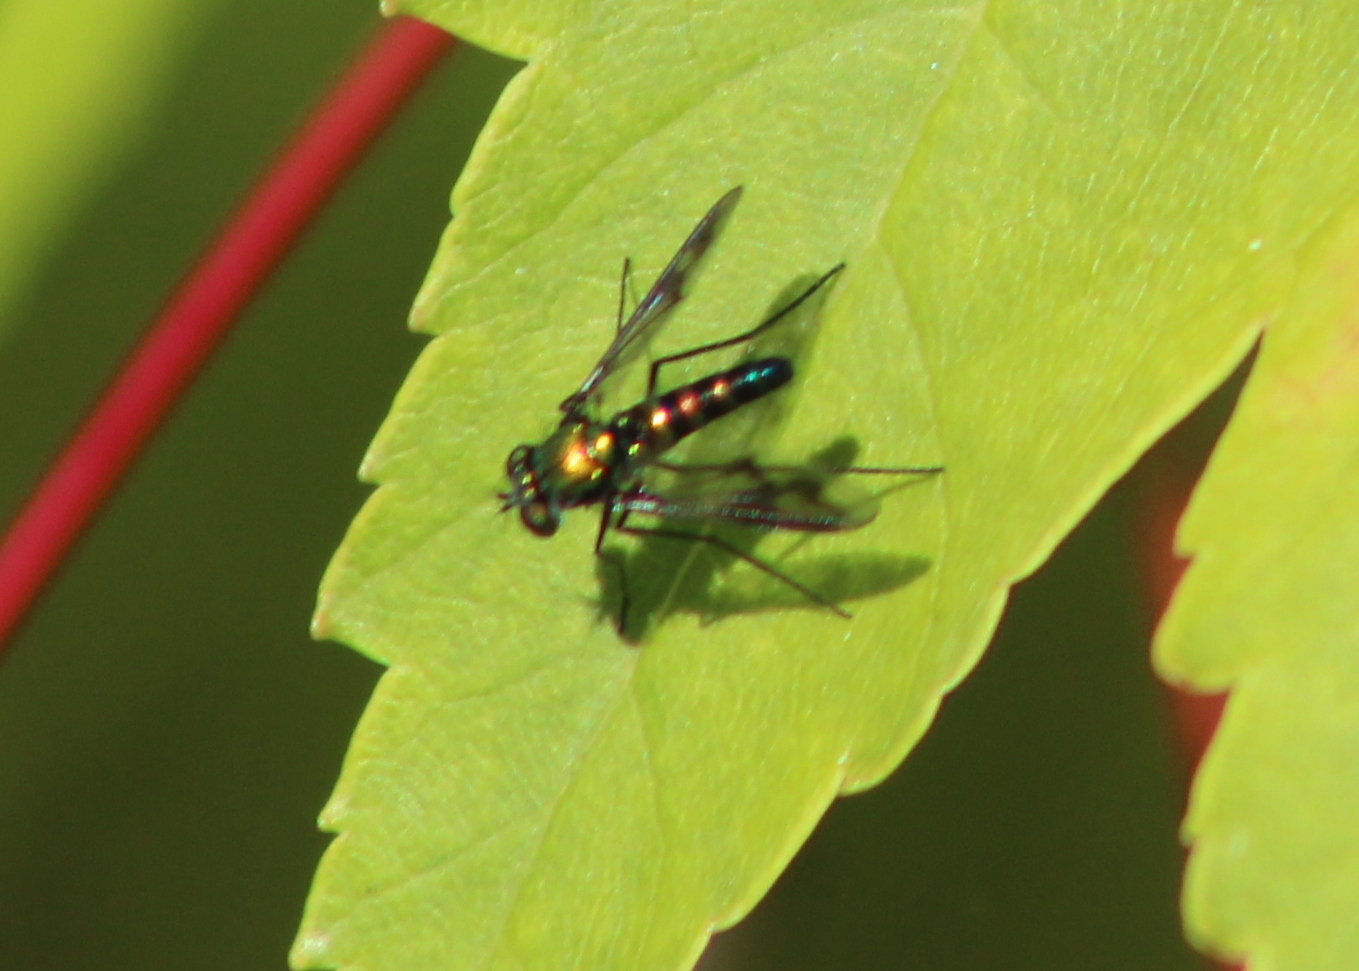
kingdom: Animalia
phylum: Arthropoda
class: Insecta
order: Diptera
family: Dolichopodidae
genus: Condylostylus
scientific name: Condylostylus patibulatus
